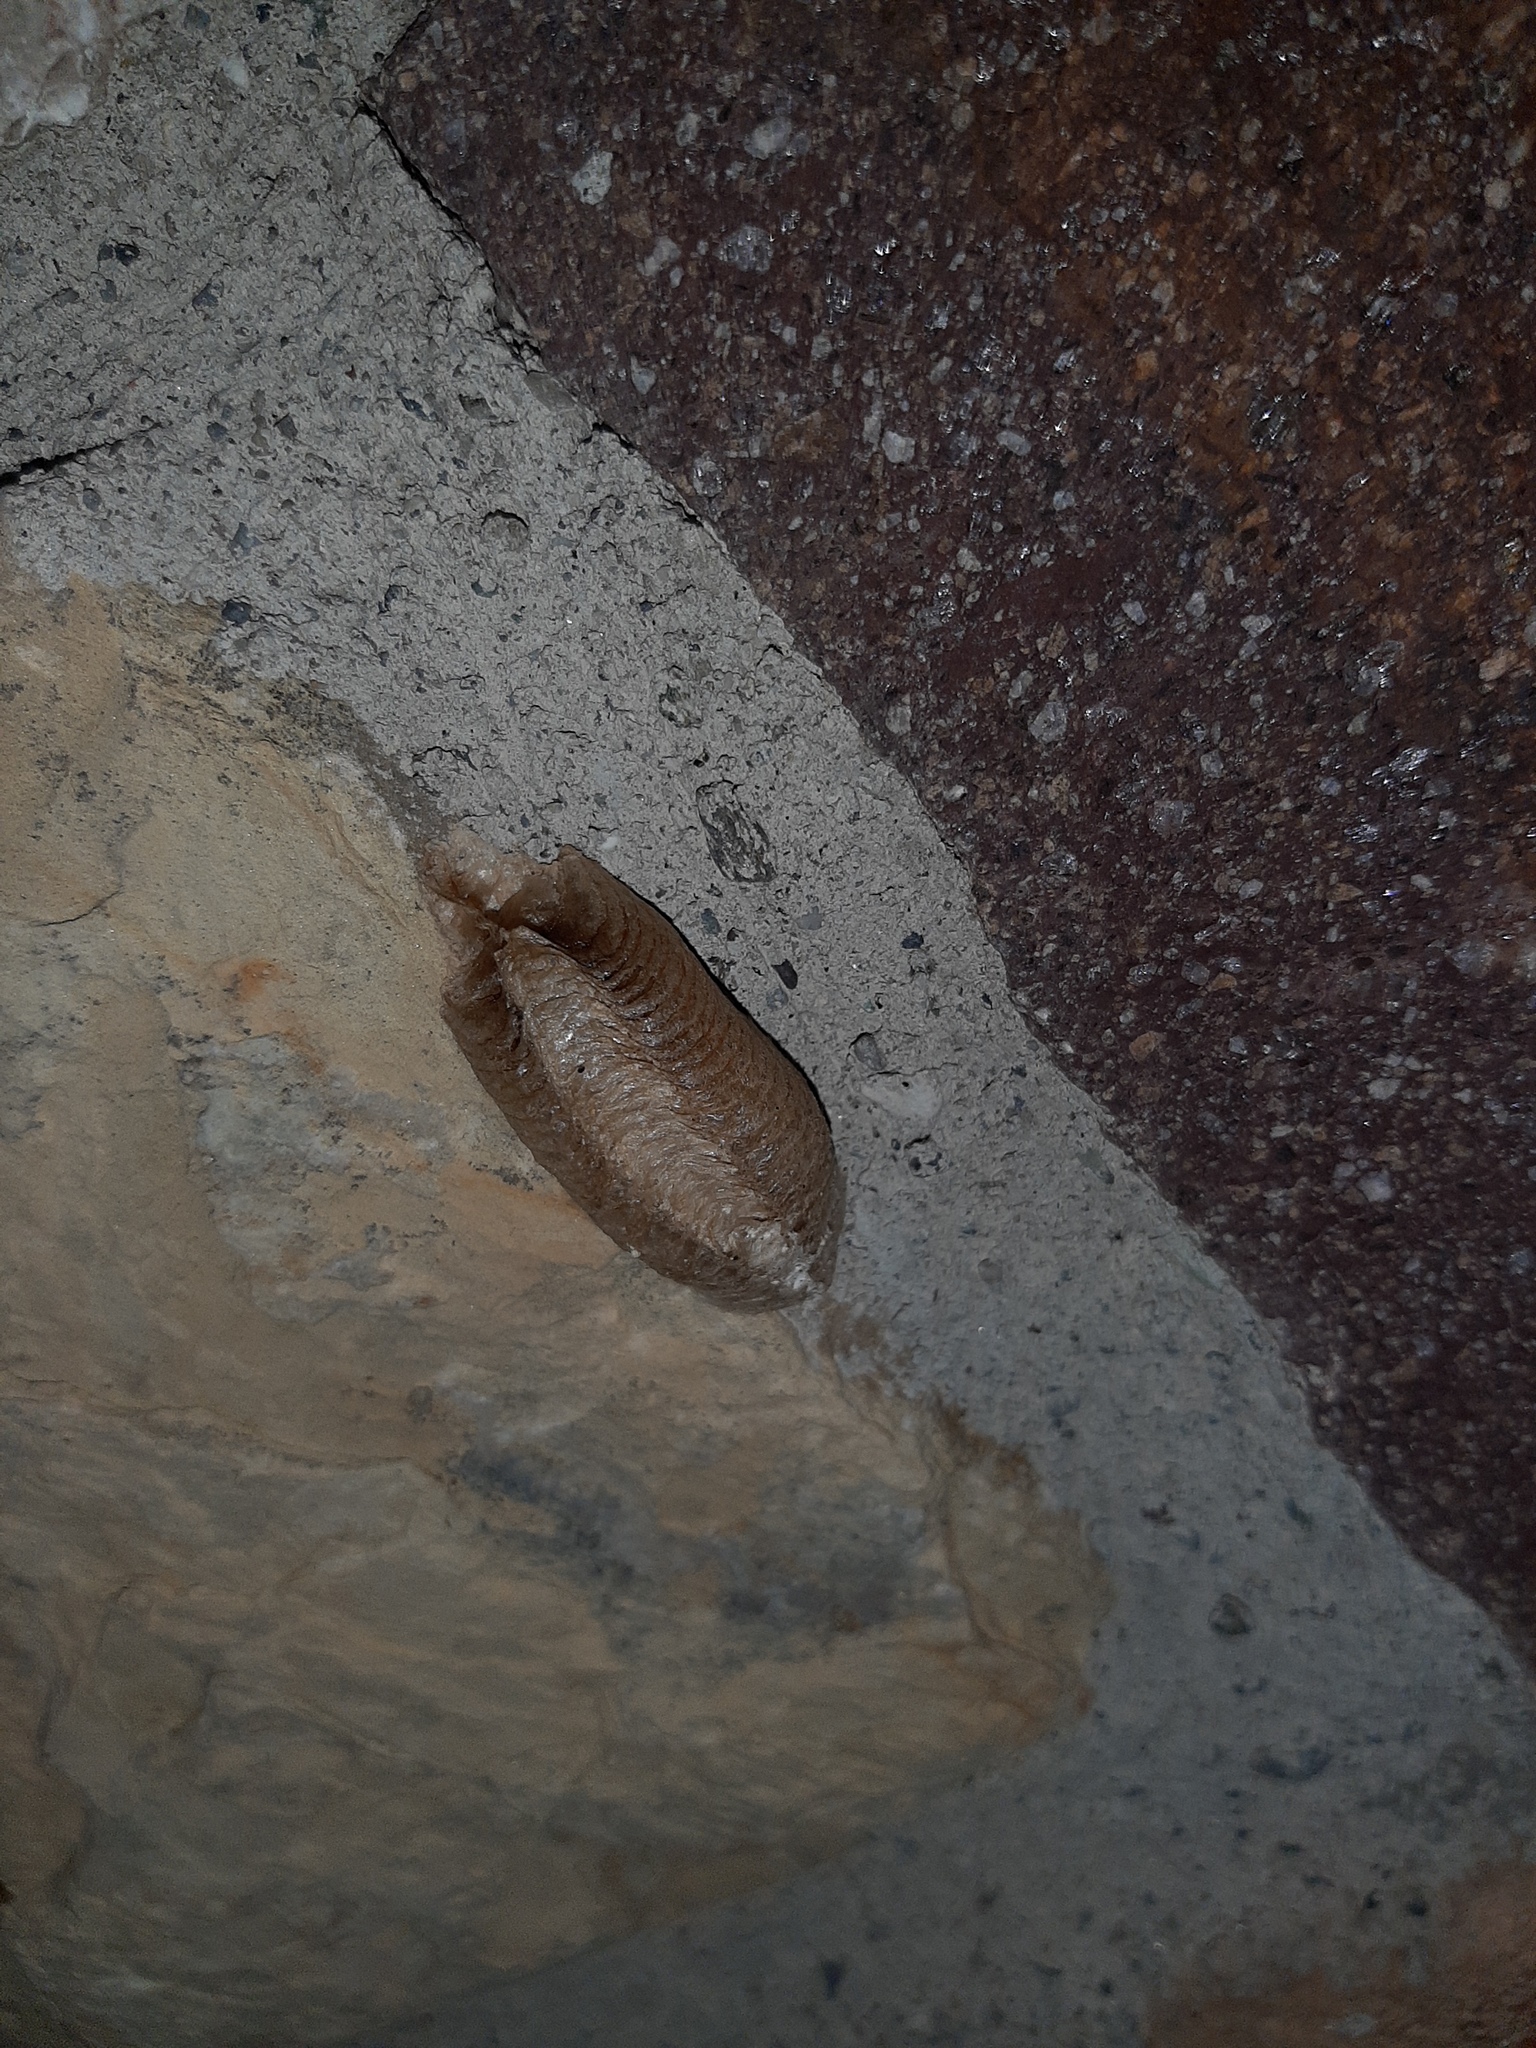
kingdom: Animalia
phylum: Arthropoda
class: Insecta
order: Mantodea
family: Mantidae
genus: Mantis
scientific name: Mantis religiosa
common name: Praying mantis
